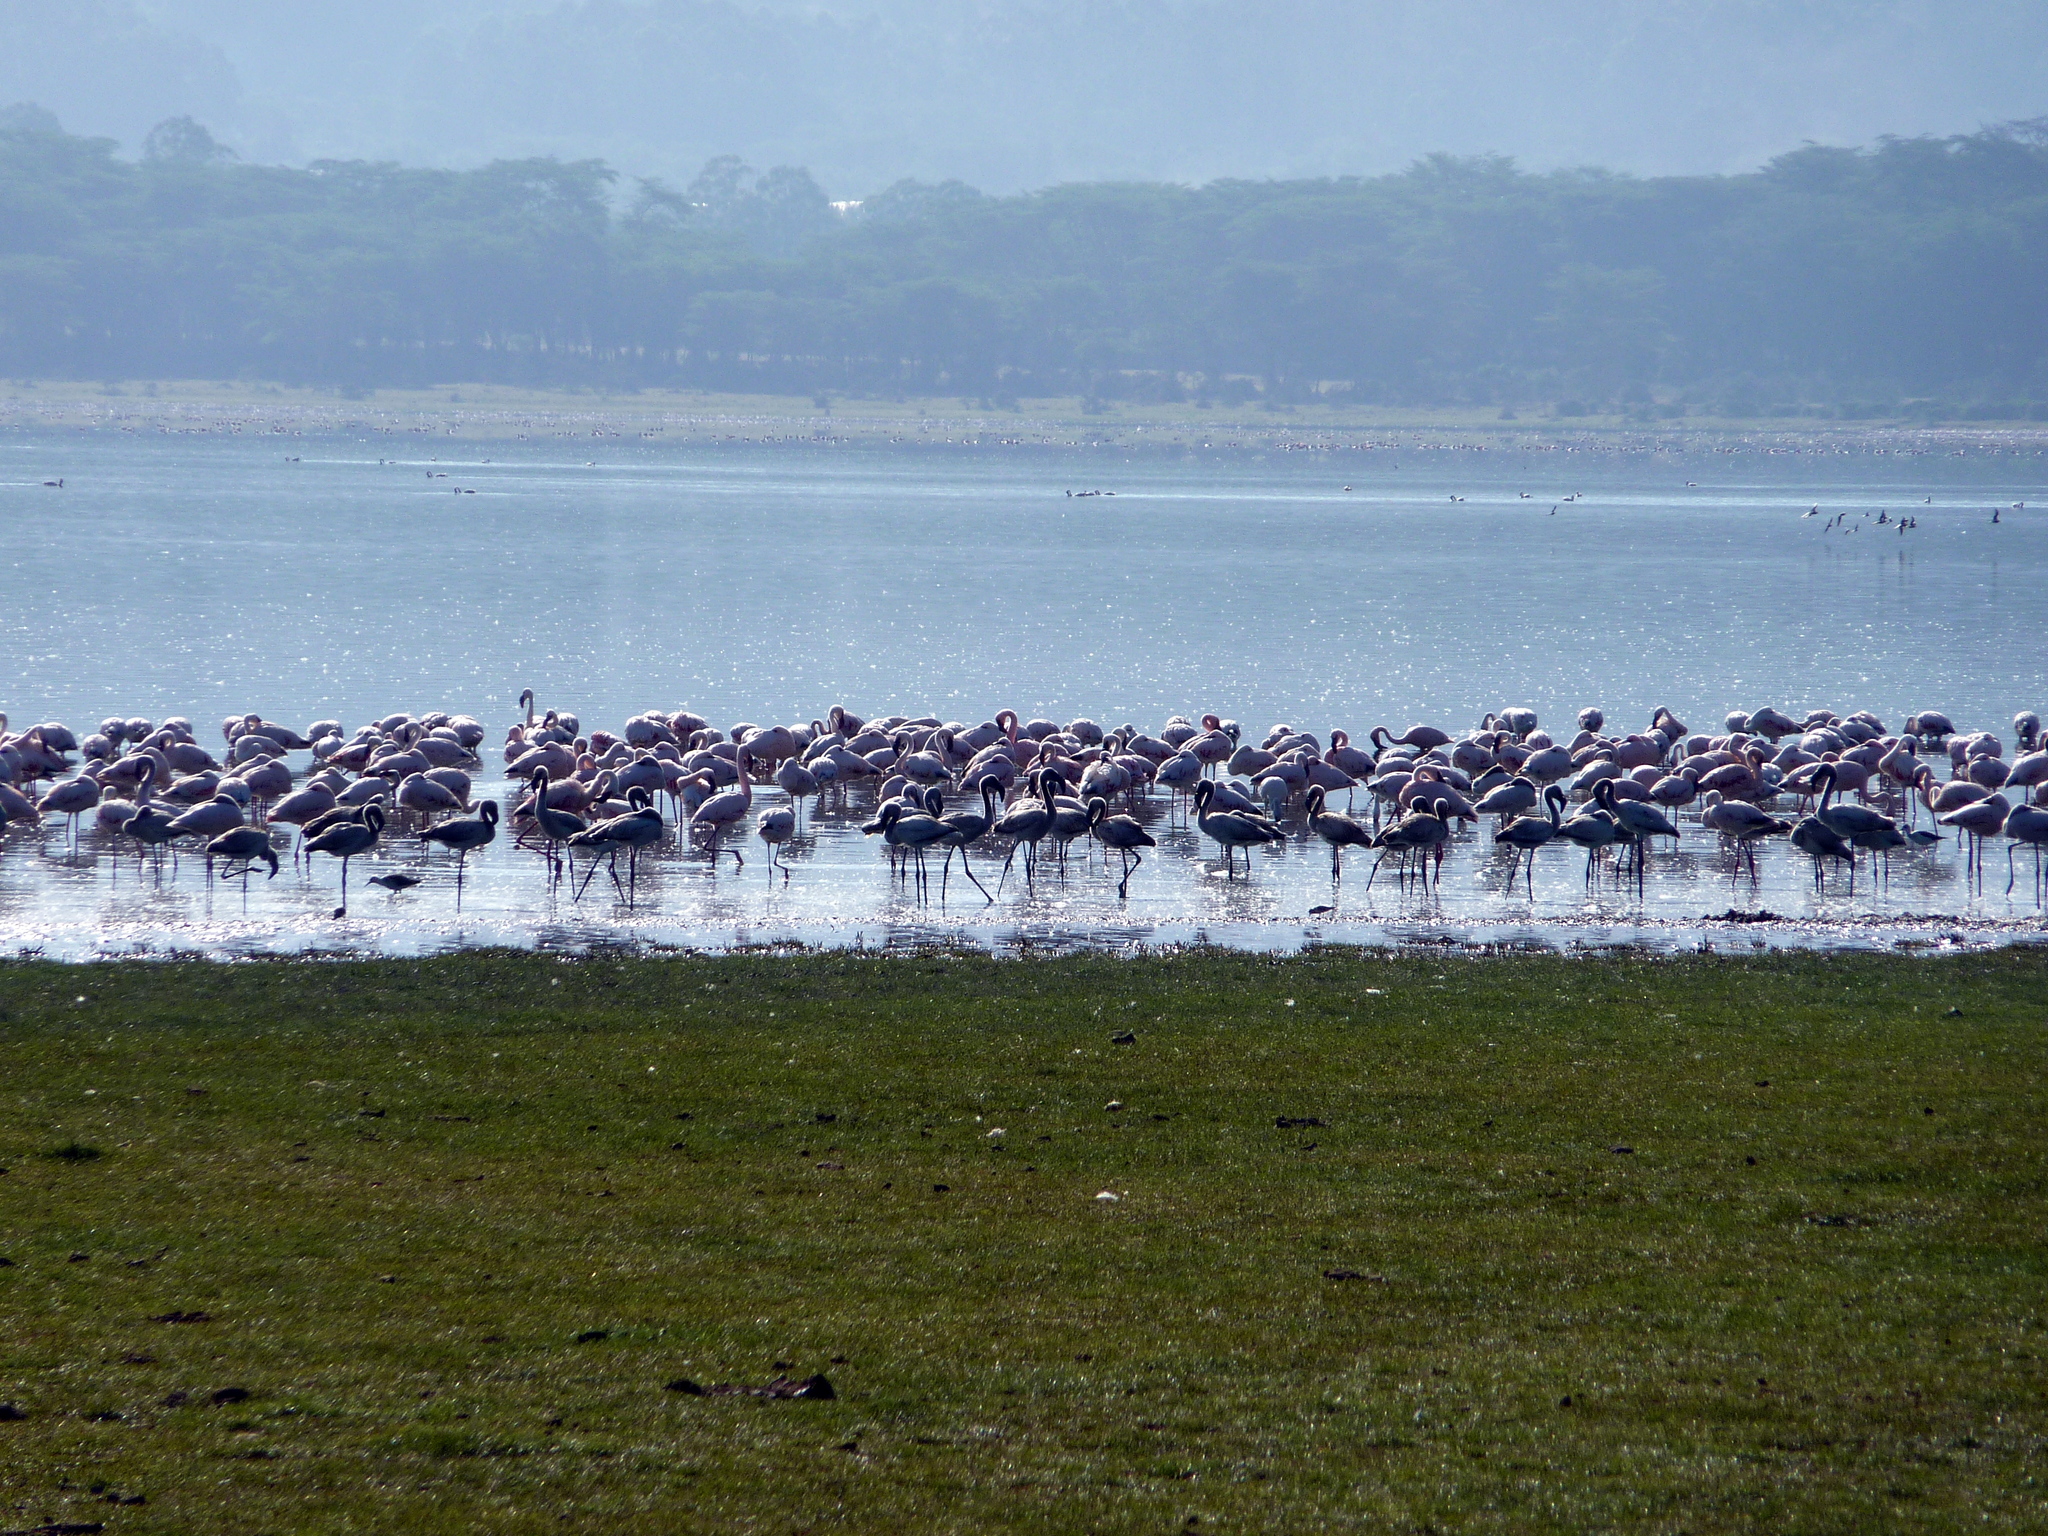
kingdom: Animalia
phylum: Chordata
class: Aves
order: Phoenicopteriformes
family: Phoenicopteridae
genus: Phoeniconaias
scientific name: Phoeniconaias minor
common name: Lesser flamingo
